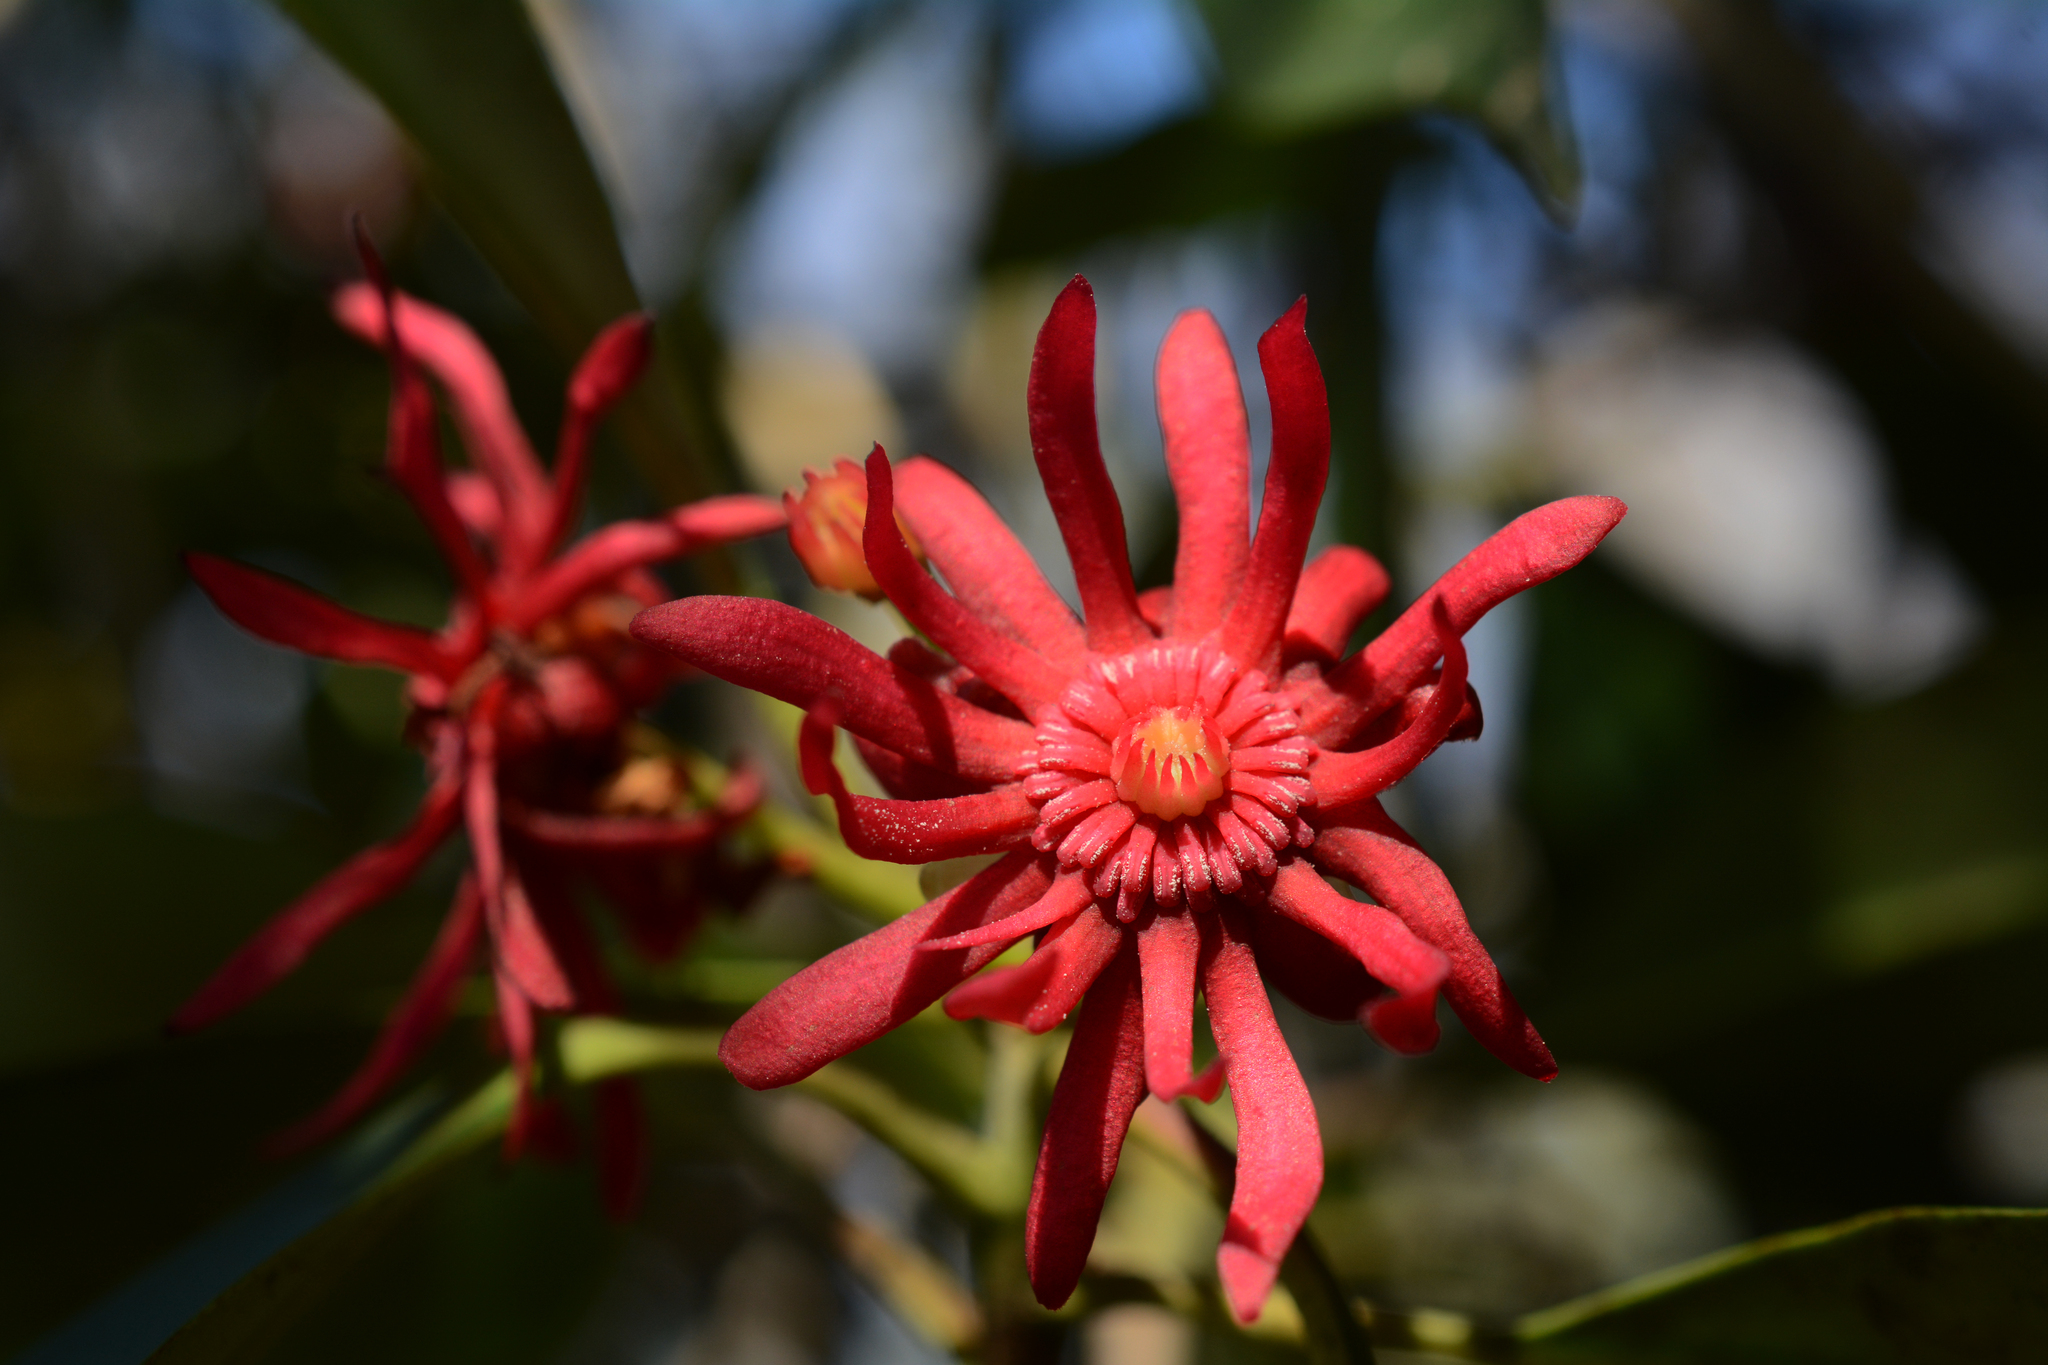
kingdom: Plantae
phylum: Tracheophyta
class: Magnoliopsida
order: Austrobaileyales
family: Schisandraceae
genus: Illicium
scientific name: Illicium floridanum
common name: Florida anisetree
